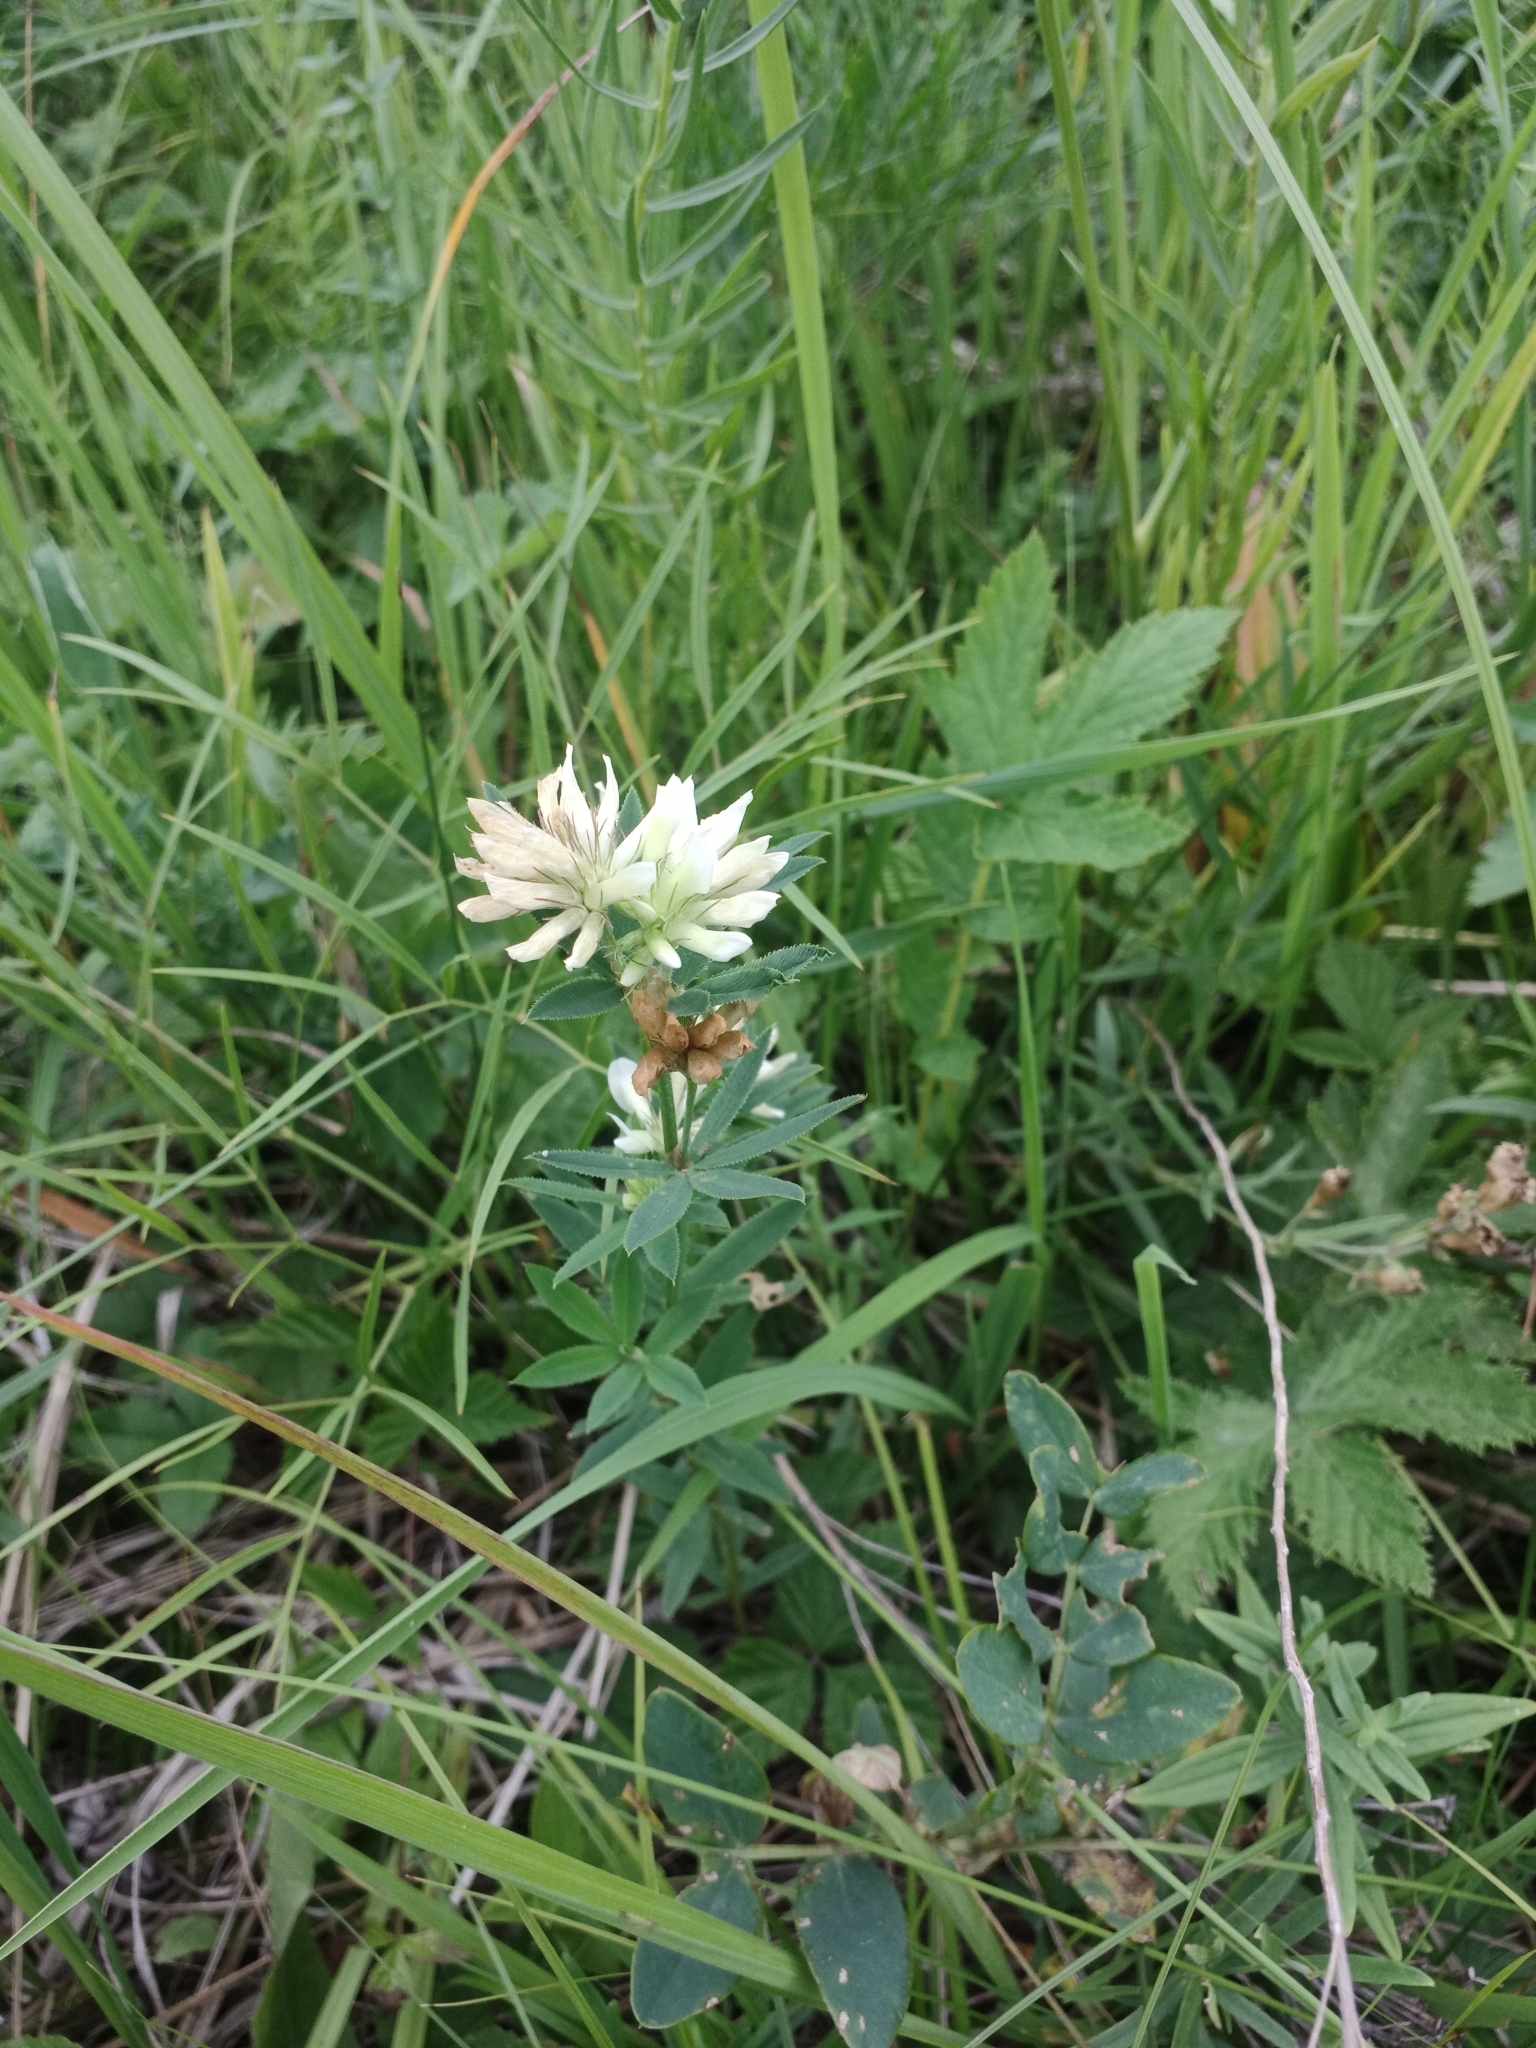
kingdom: Plantae
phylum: Tracheophyta
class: Magnoliopsida
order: Fabales
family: Fabaceae
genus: Trifolium
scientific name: Trifolium lupinaster
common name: Lupine clover
